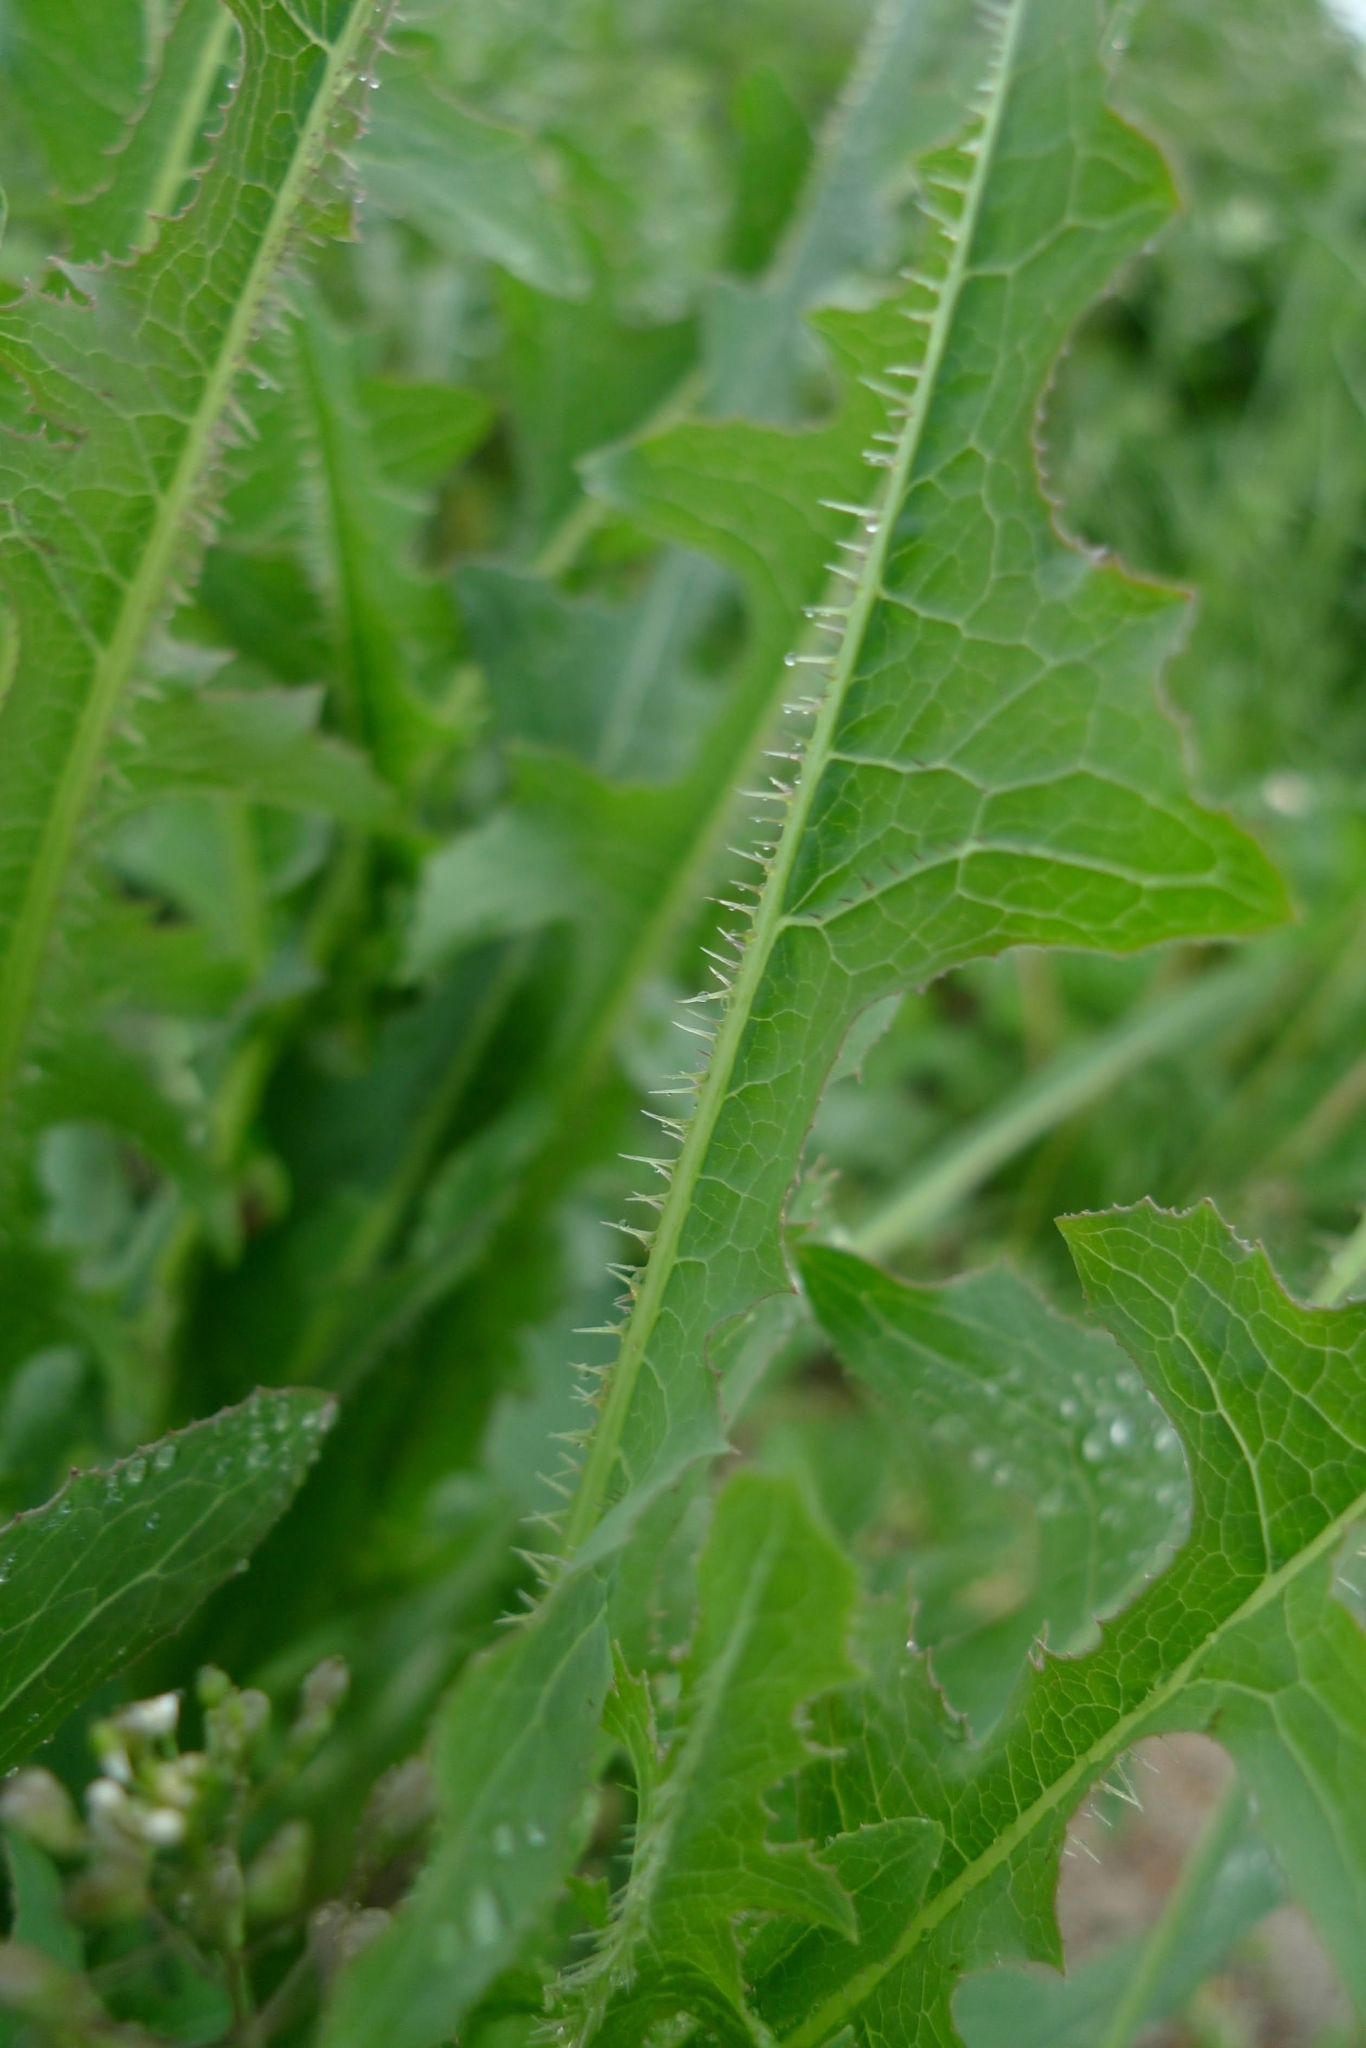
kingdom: Plantae
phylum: Tracheophyta
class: Magnoliopsida
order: Asterales
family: Asteraceae
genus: Lactuca
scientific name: Lactuca serriola
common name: Prickly lettuce
